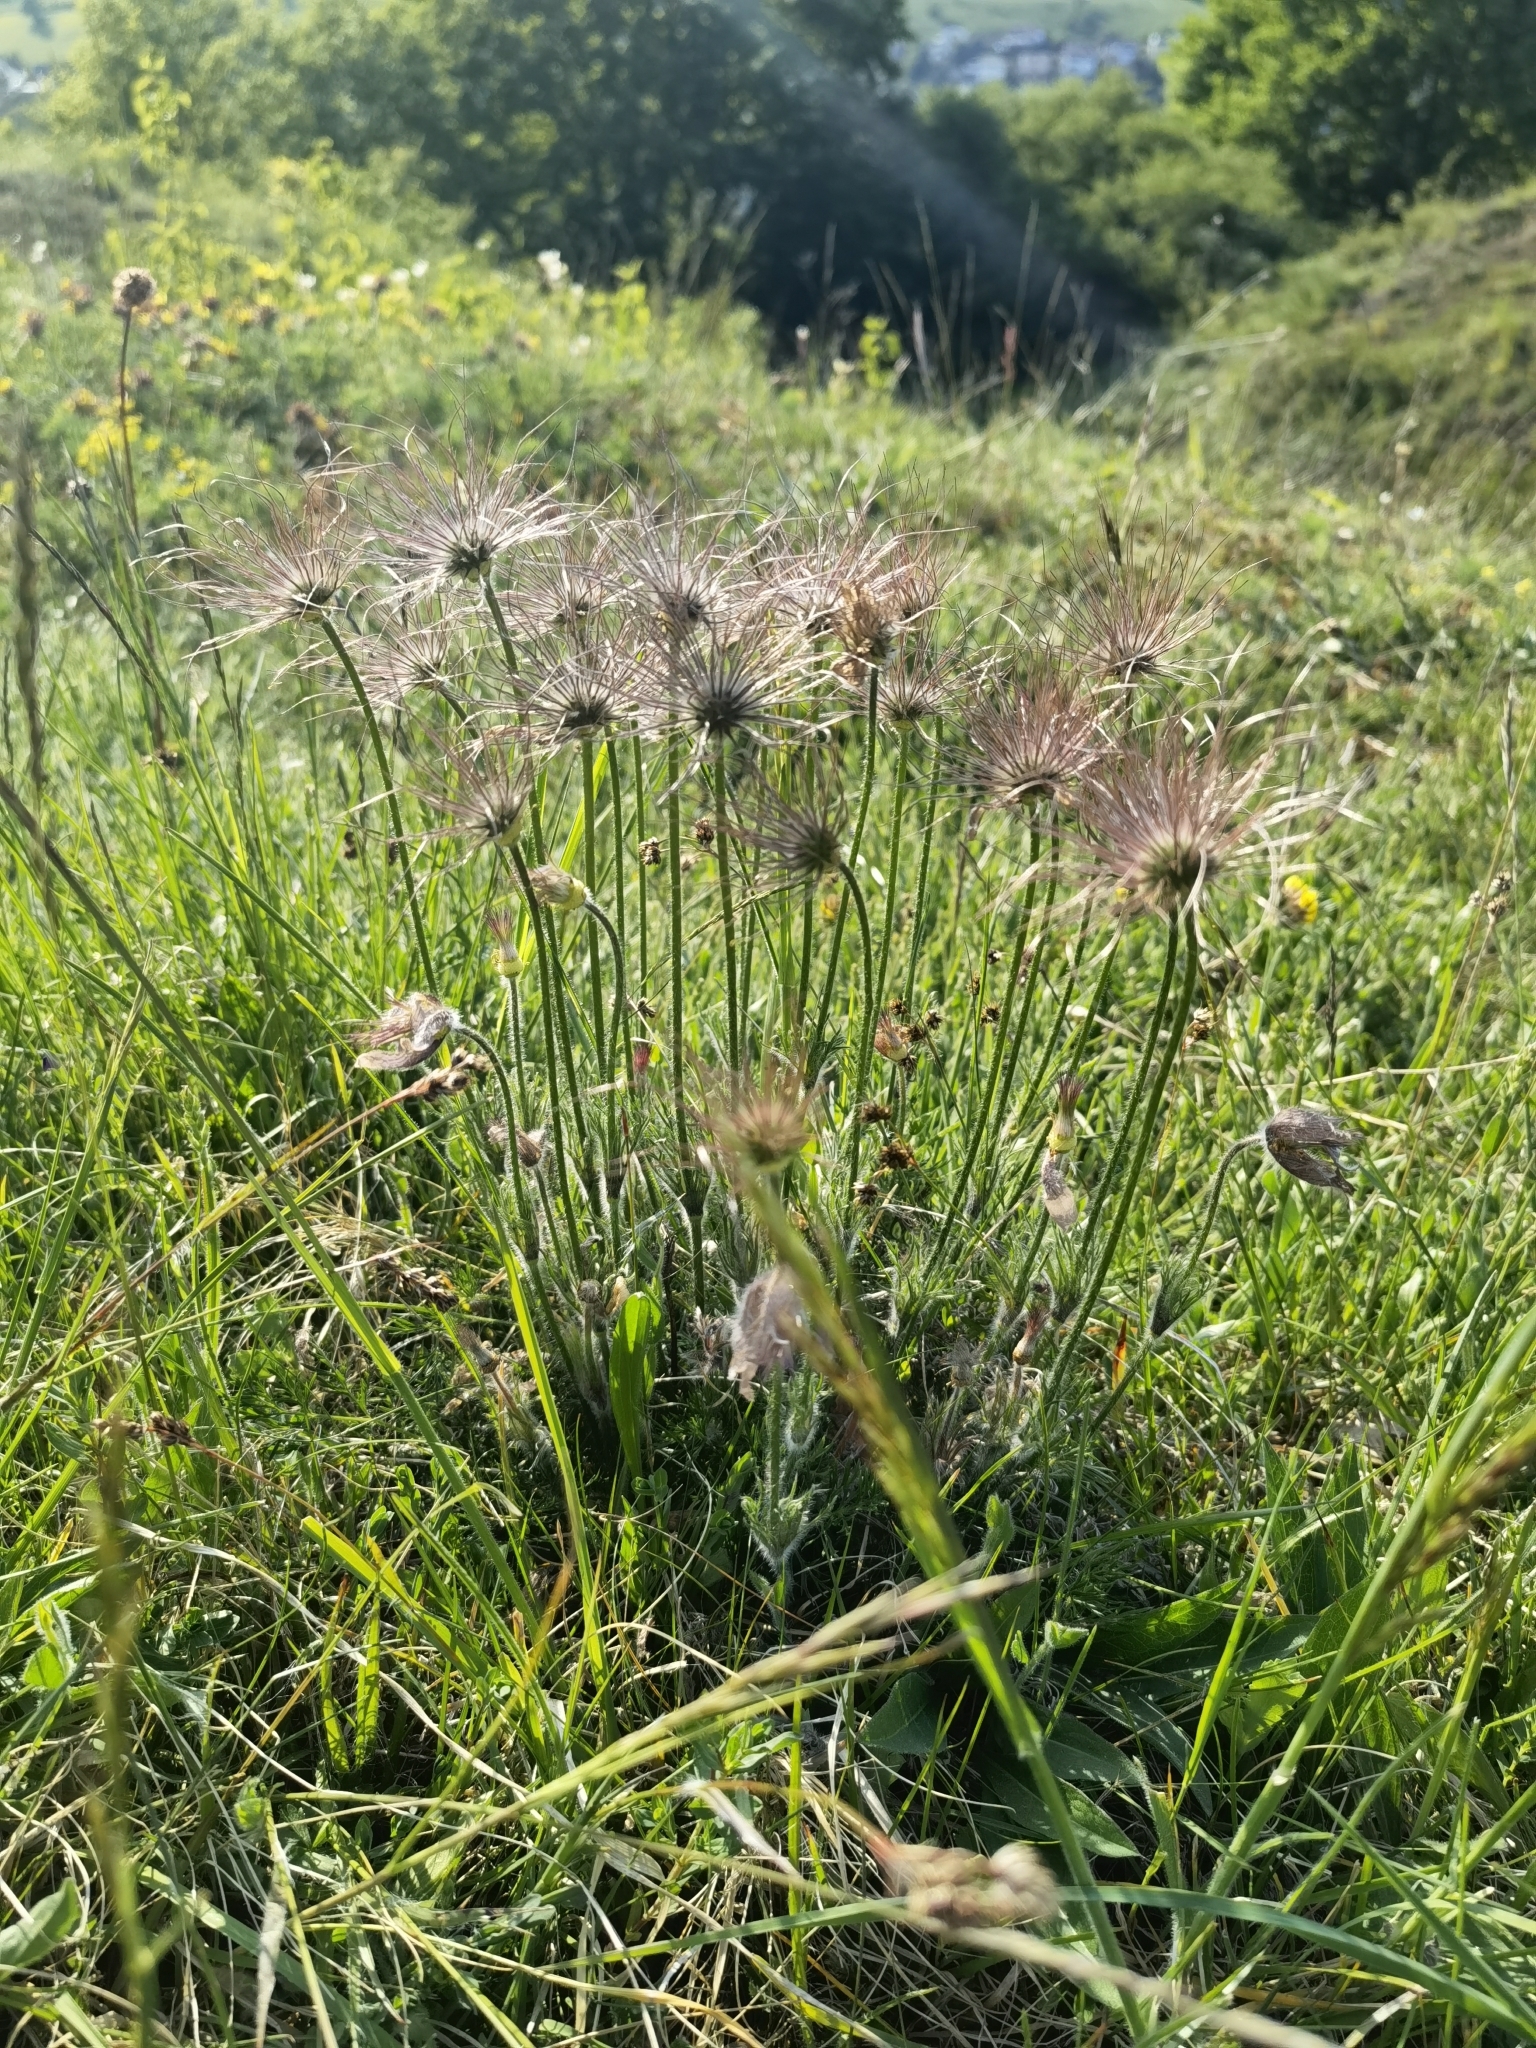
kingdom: Plantae
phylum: Tracheophyta
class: Magnoliopsida
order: Ranunculales
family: Ranunculaceae
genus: Pulsatilla
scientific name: Pulsatilla vulgaris
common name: Pasqueflower
